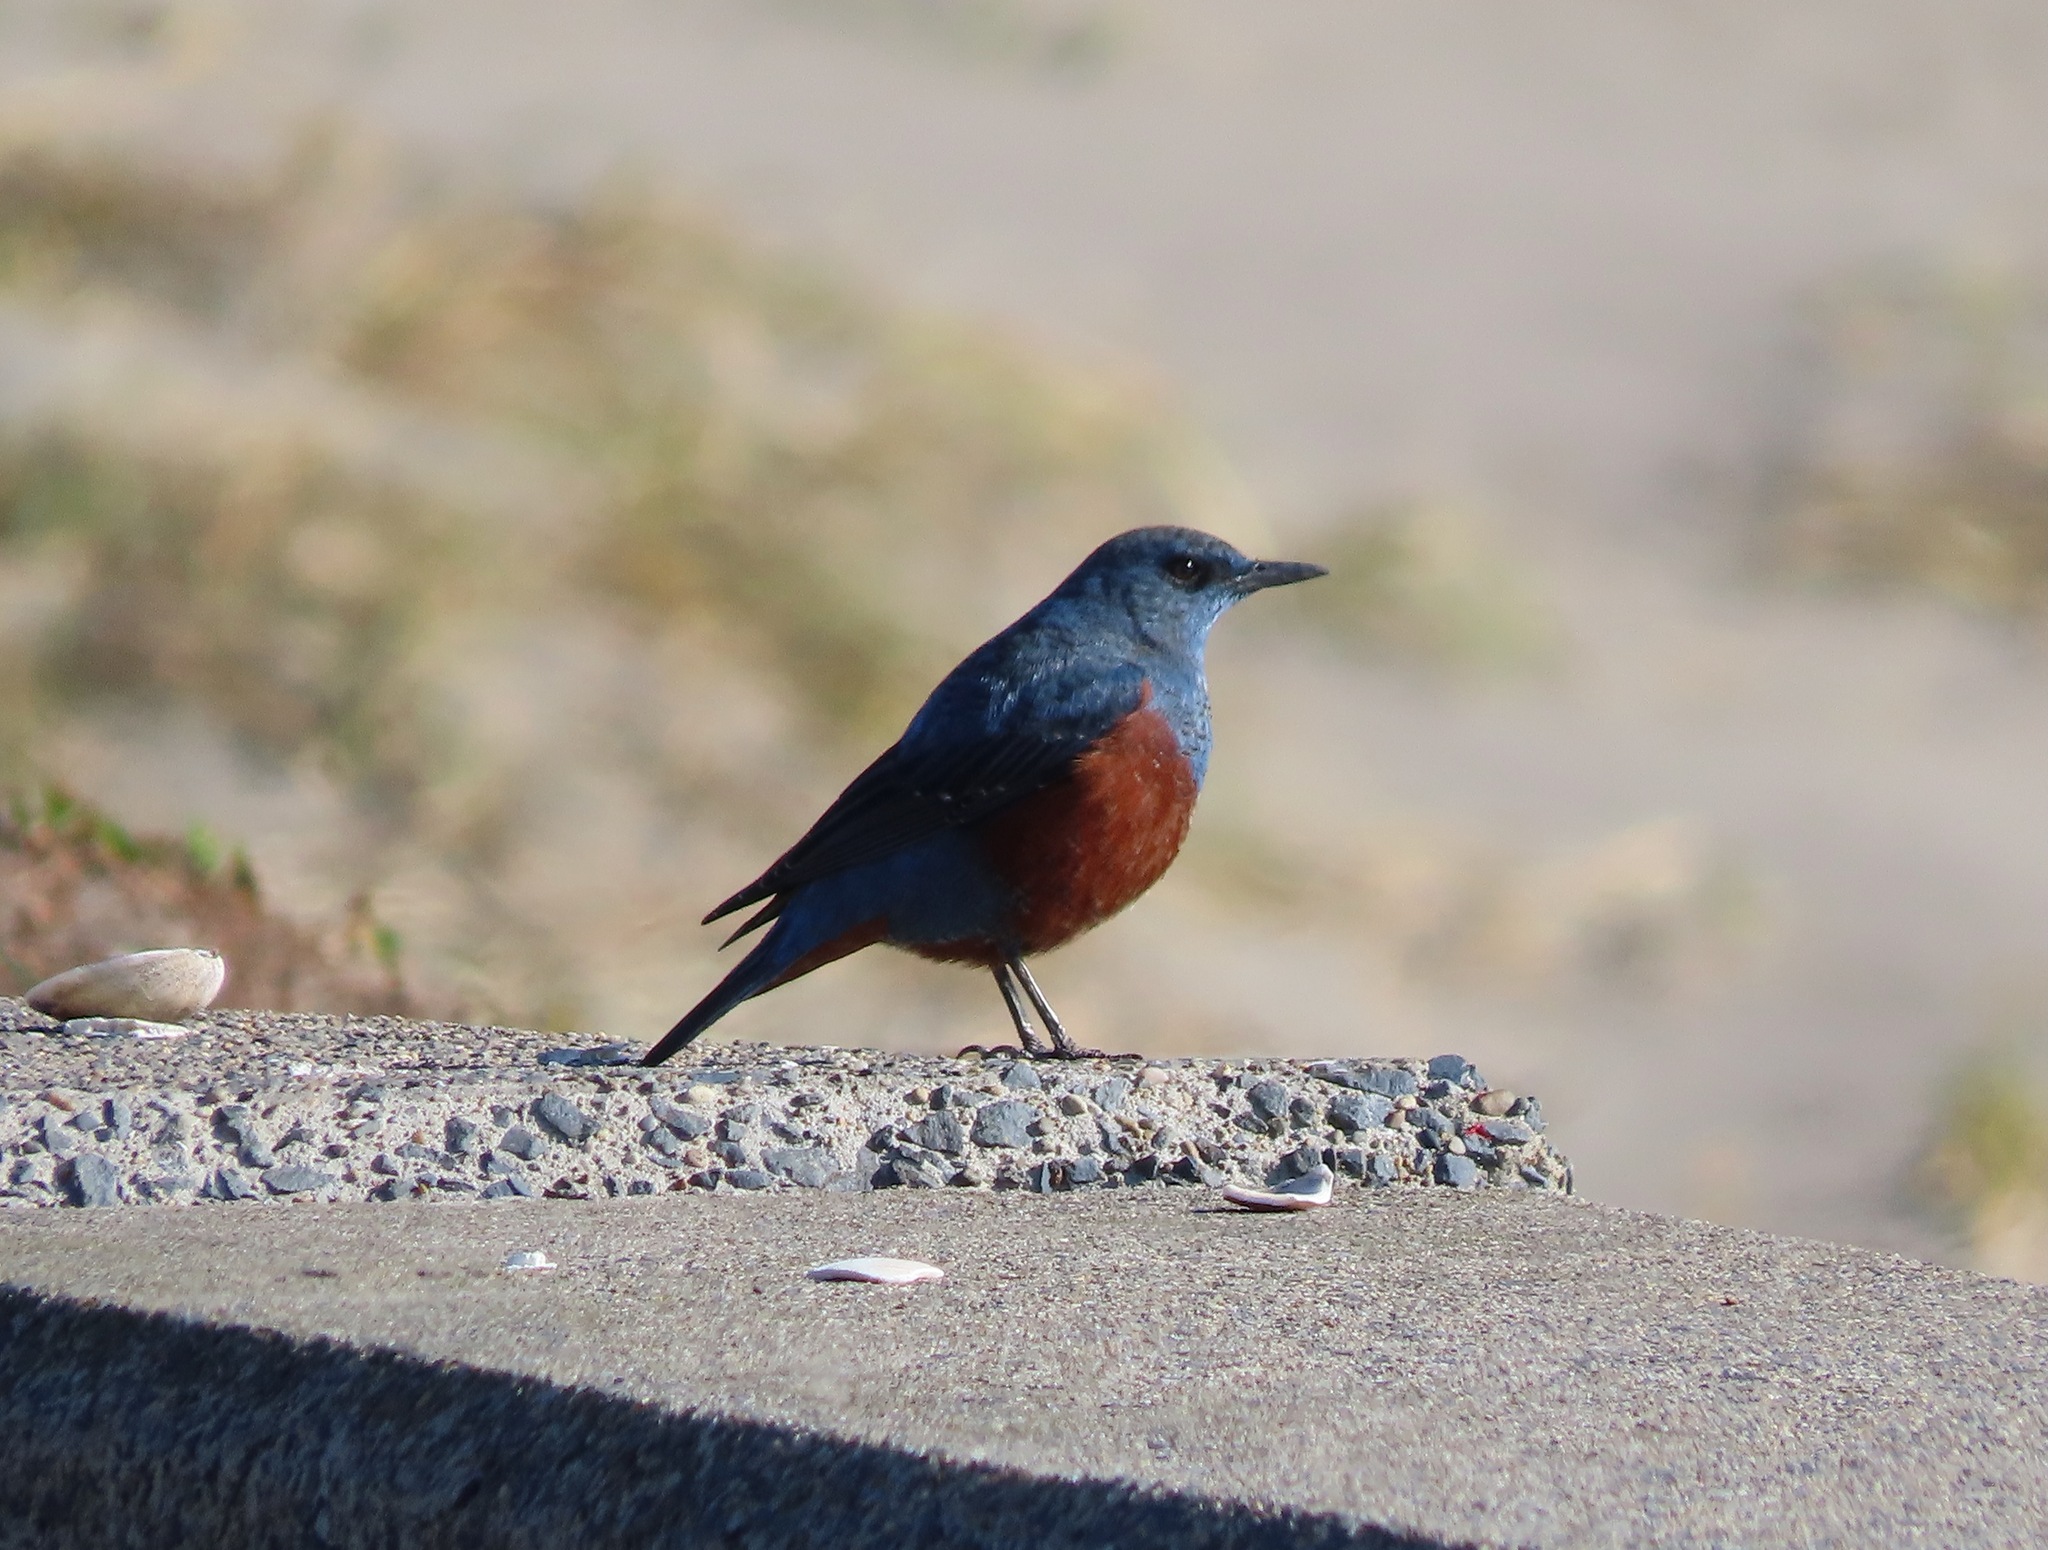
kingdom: Animalia
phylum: Chordata
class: Aves
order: Passeriformes
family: Muscicapidae
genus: Monticola
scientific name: Monticola solitarius
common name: Blue rock thrush
